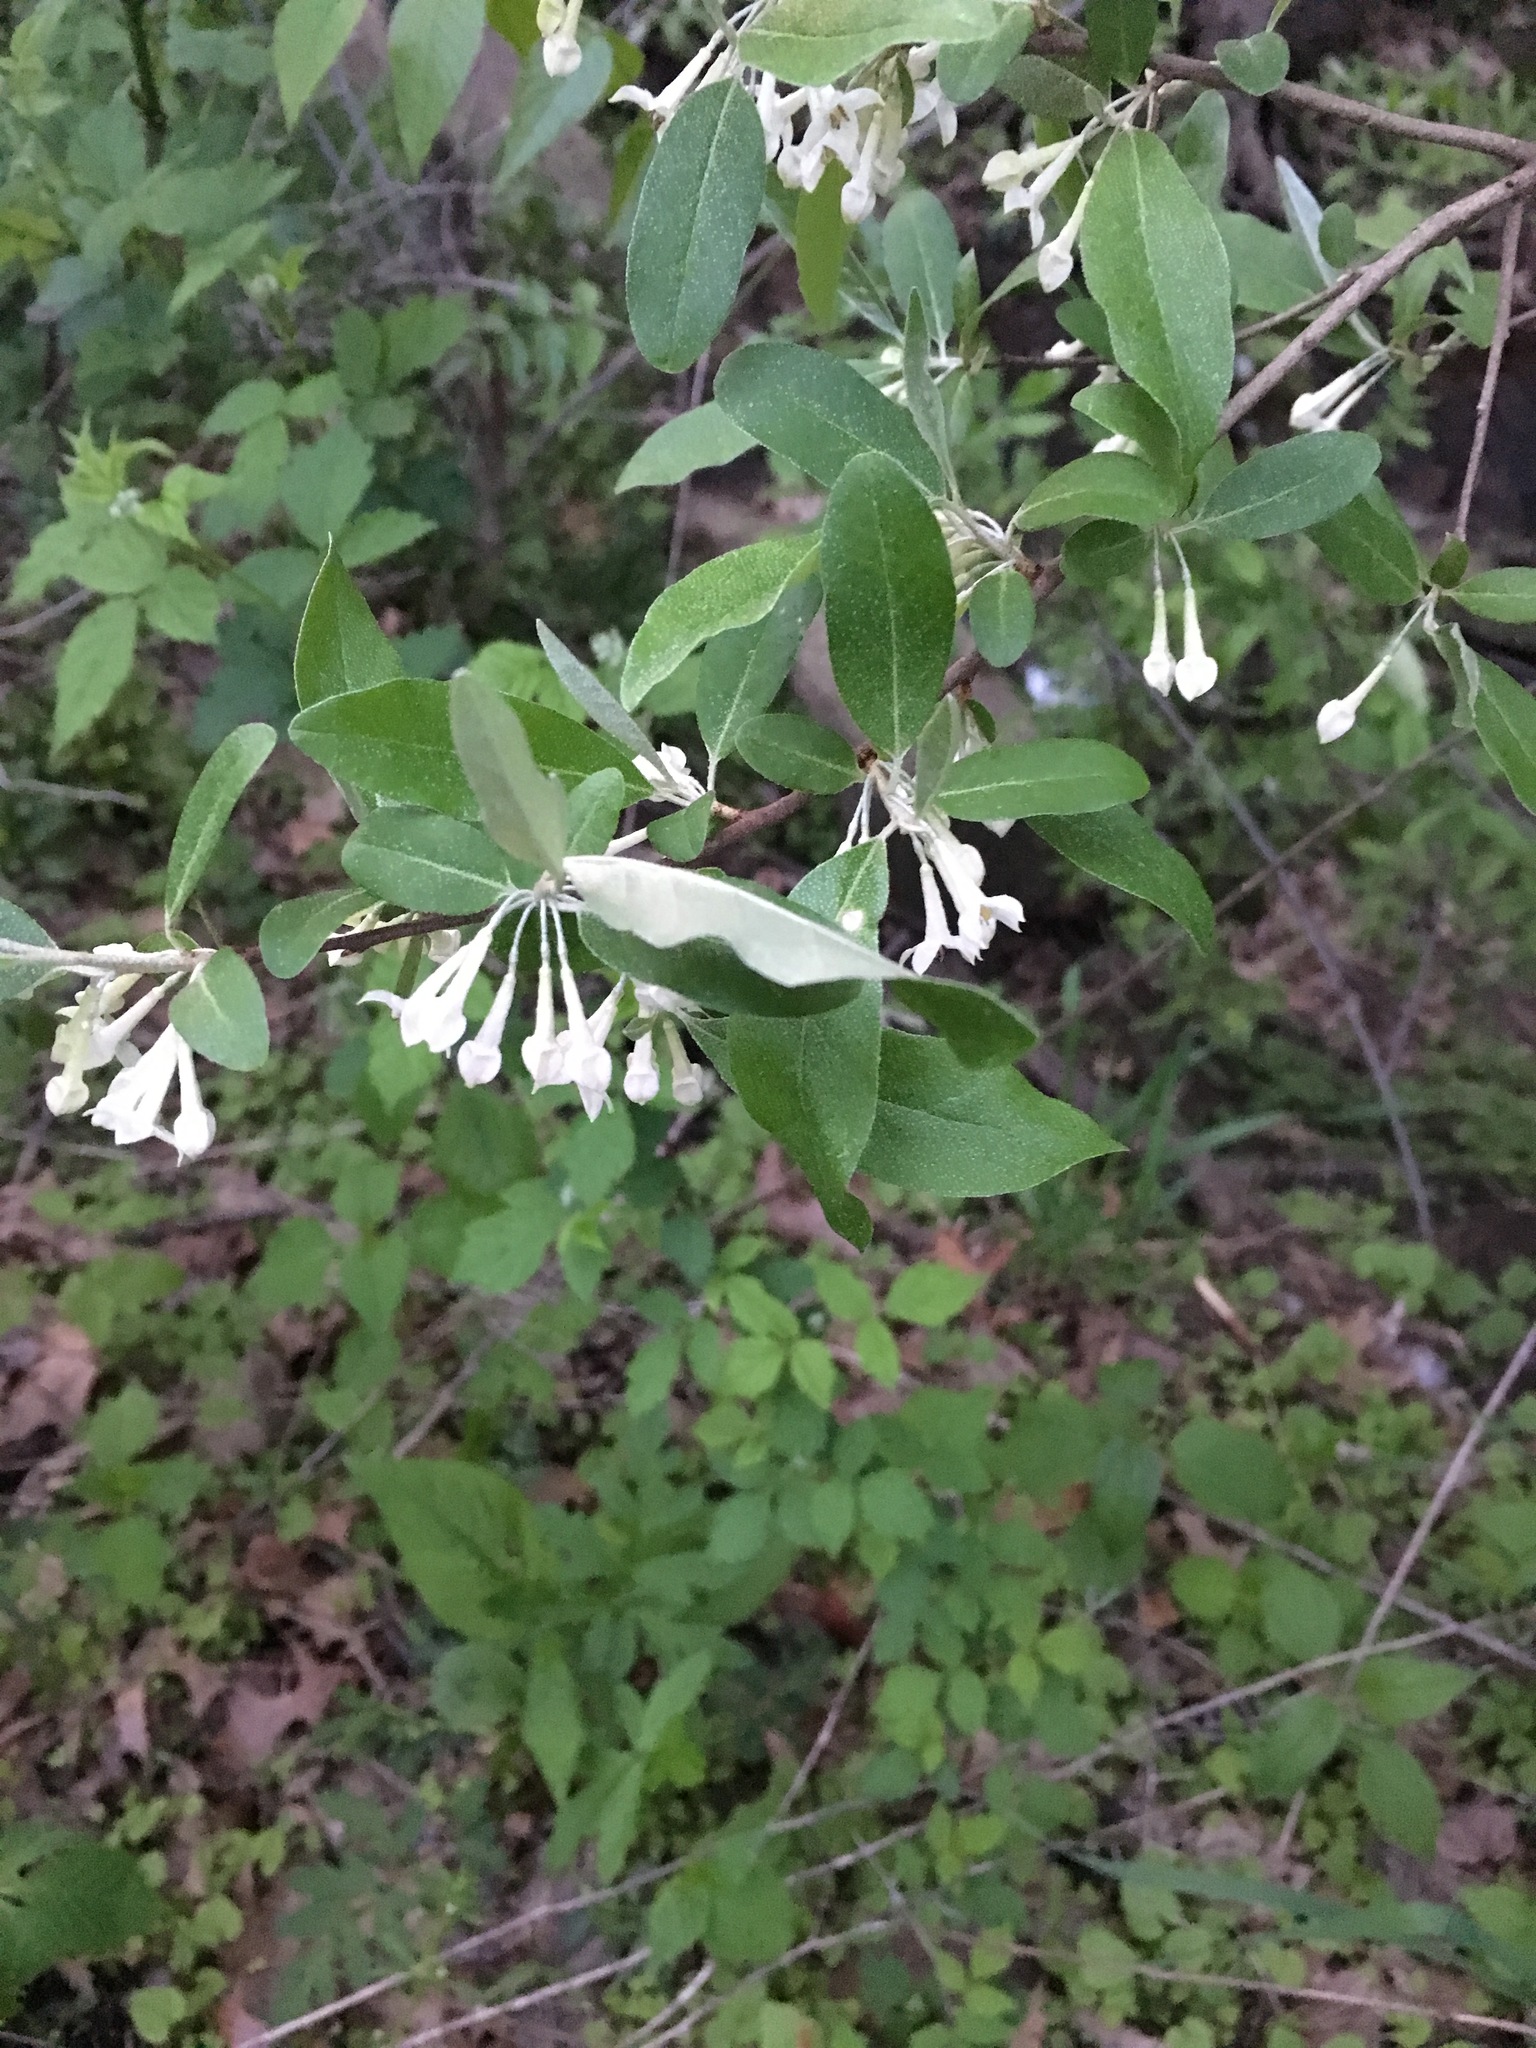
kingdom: Plantae
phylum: Tracheophyta
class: Magnoliopsida
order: Rosales
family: Elaeagnaceae
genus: Elaeagnus
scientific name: Elaeagnus umbellata
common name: Autumn olive
